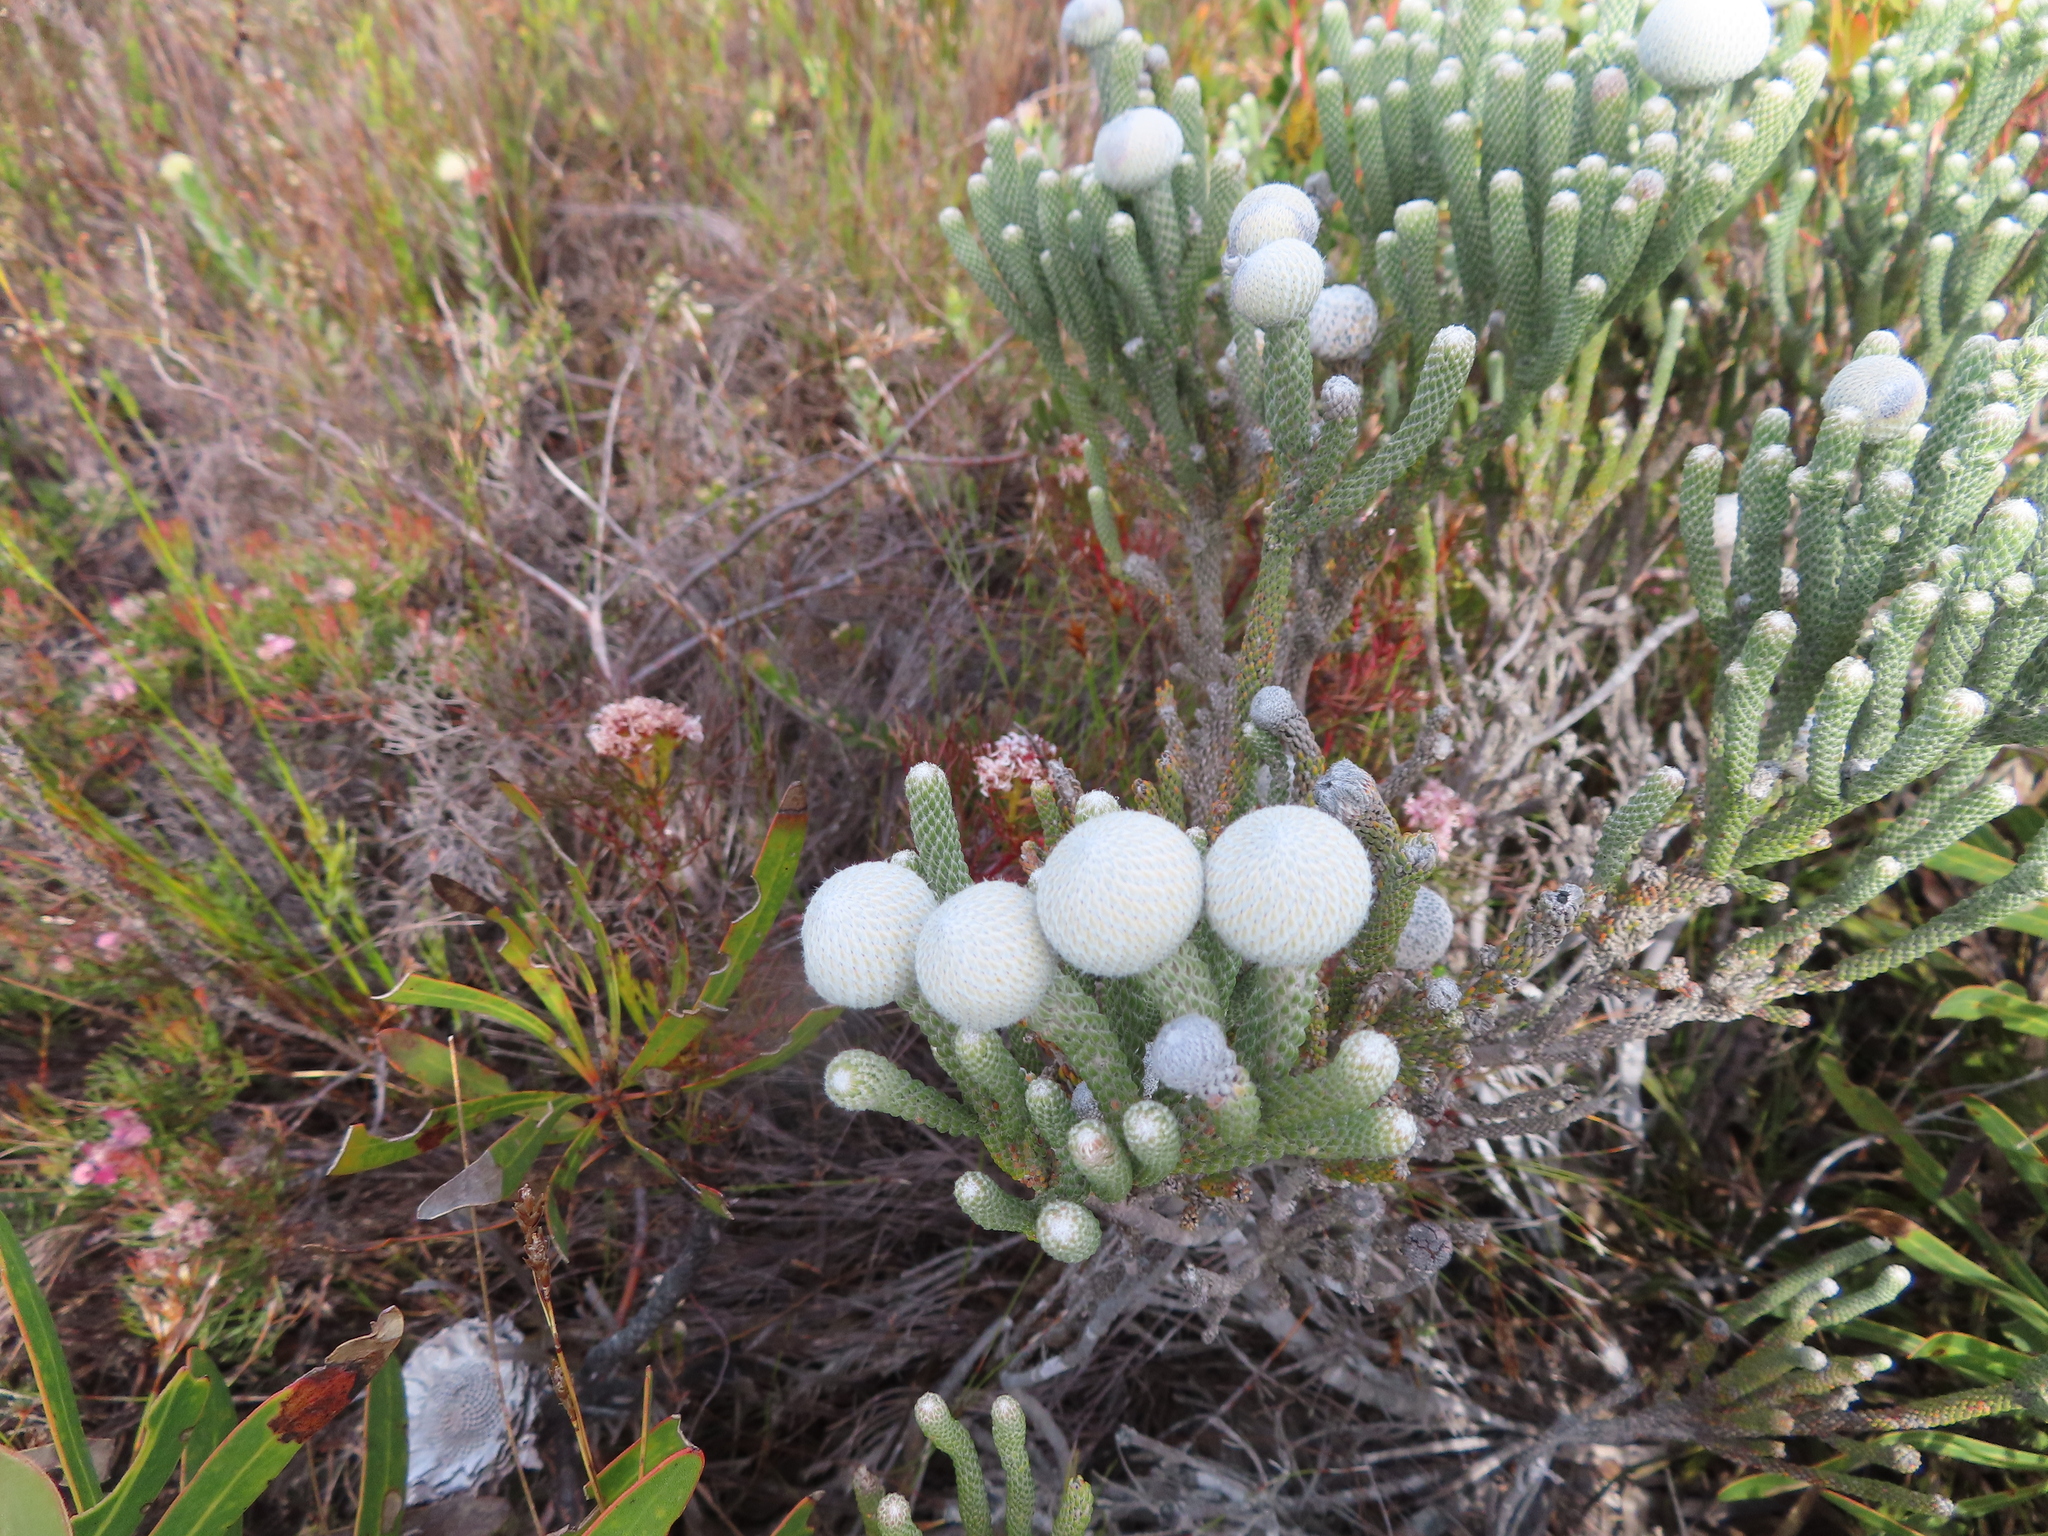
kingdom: Plantae
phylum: Tracheophyta
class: Magnoliopsida
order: Bruniales
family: Bruniaceae
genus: Brunia
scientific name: Brunia laevis
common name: Silver brunia
